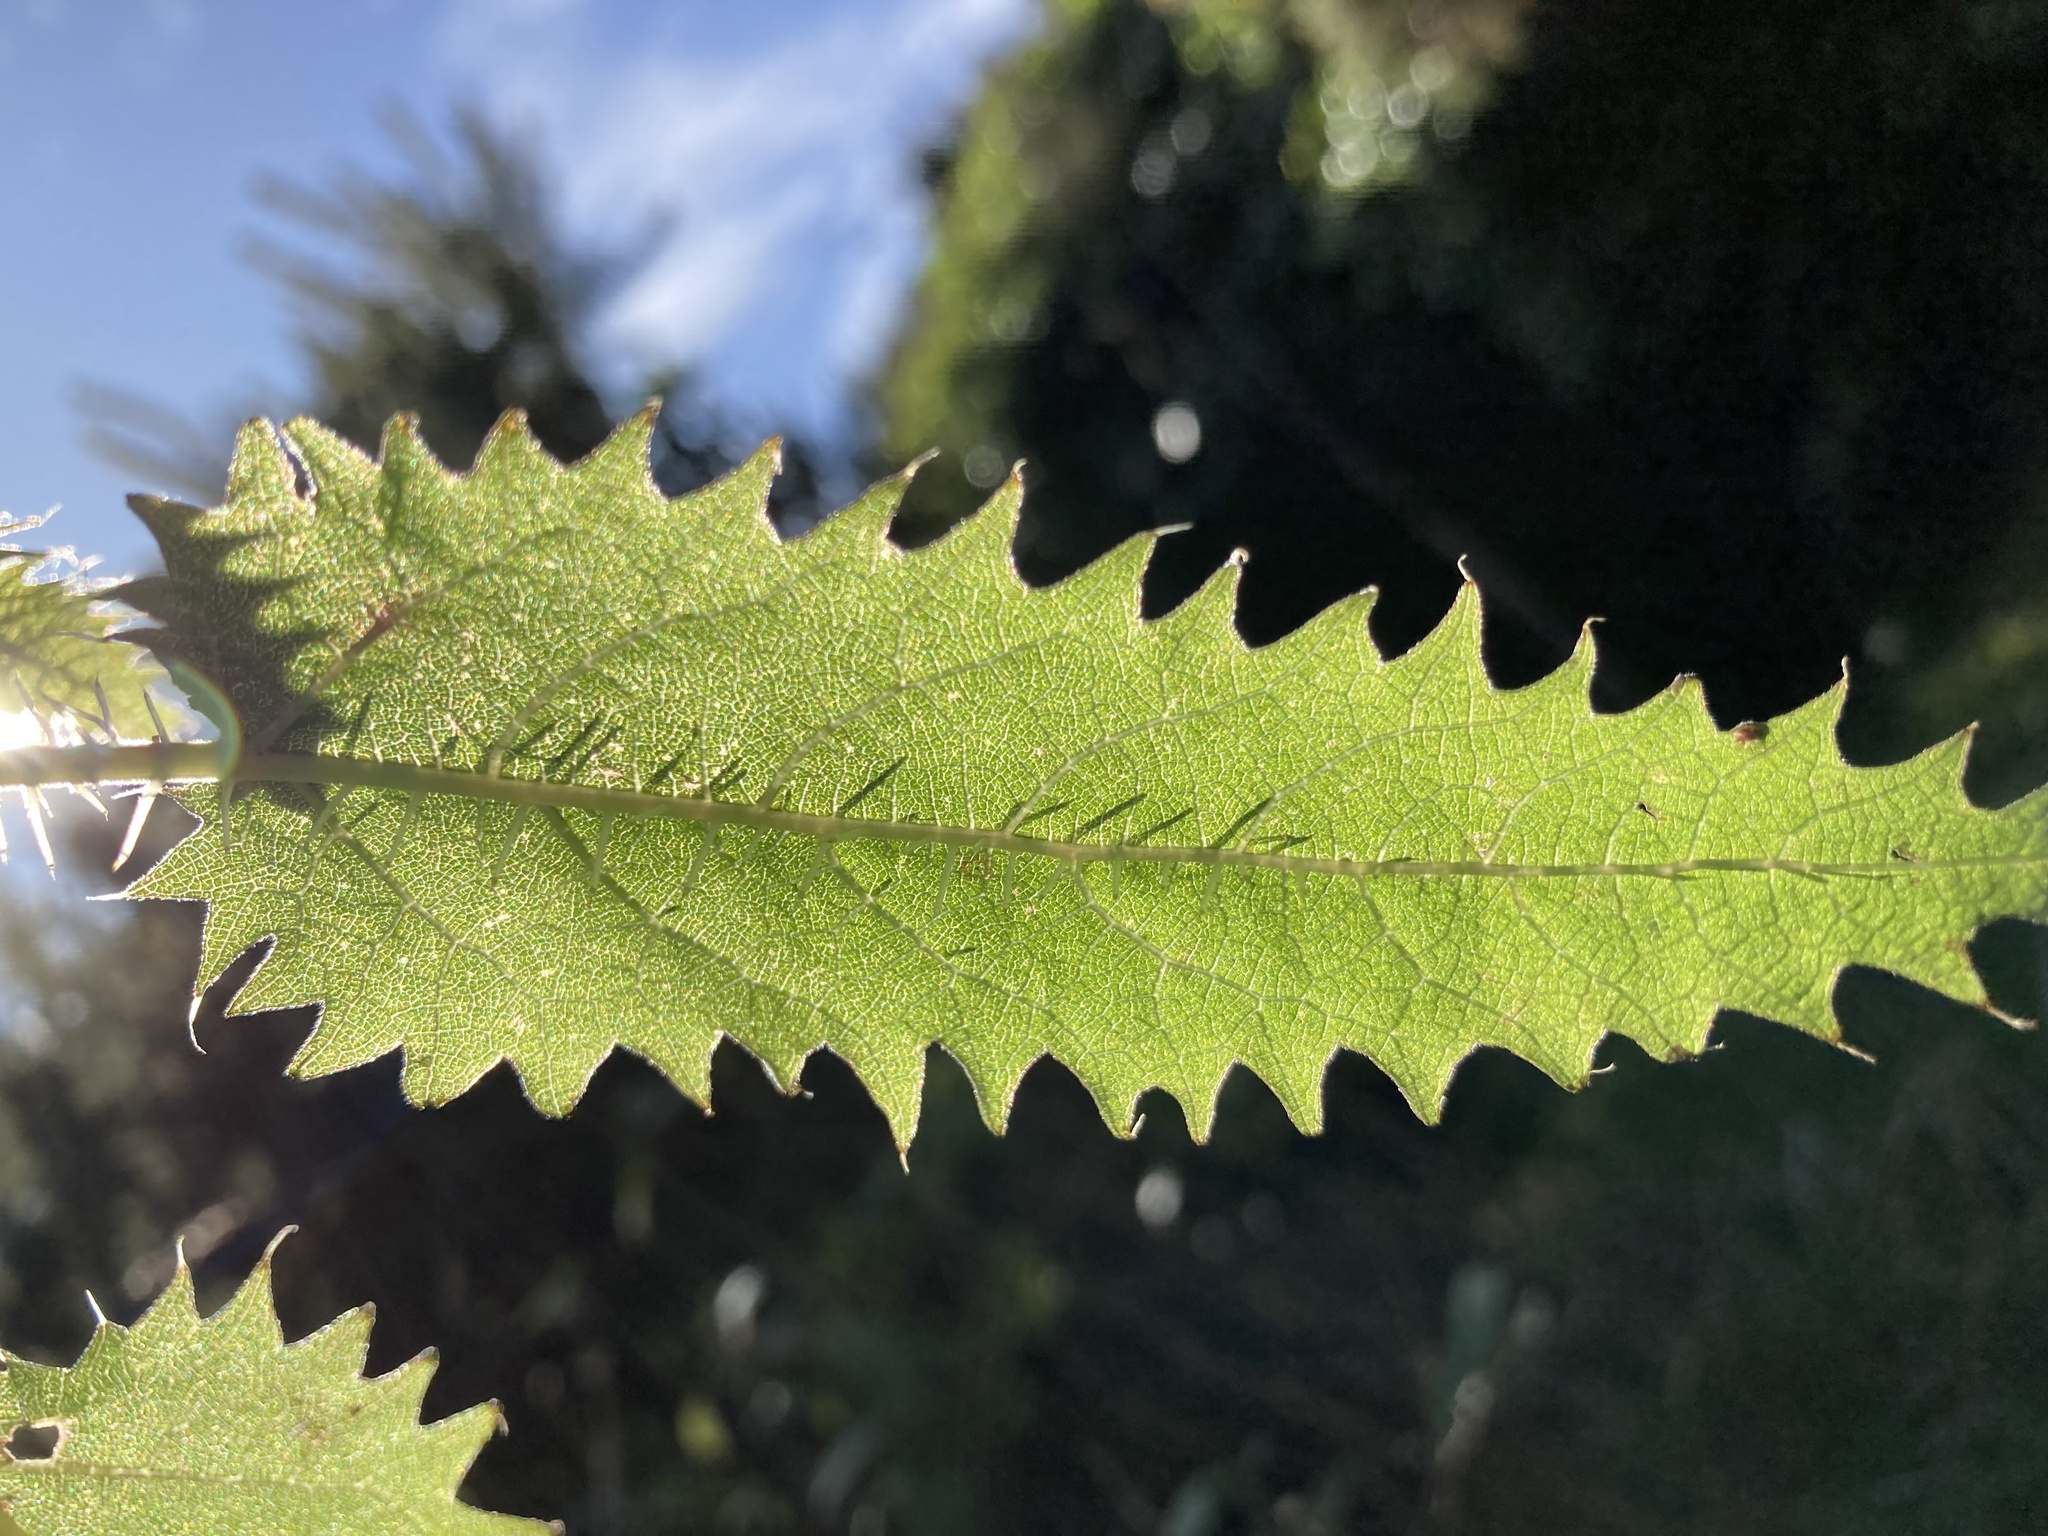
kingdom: Plantae
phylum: Tracheophyta
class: Magnoliopsida
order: Rosales
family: Urticaceae
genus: Urtica
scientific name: Urtica ferox
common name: Tree nettle
